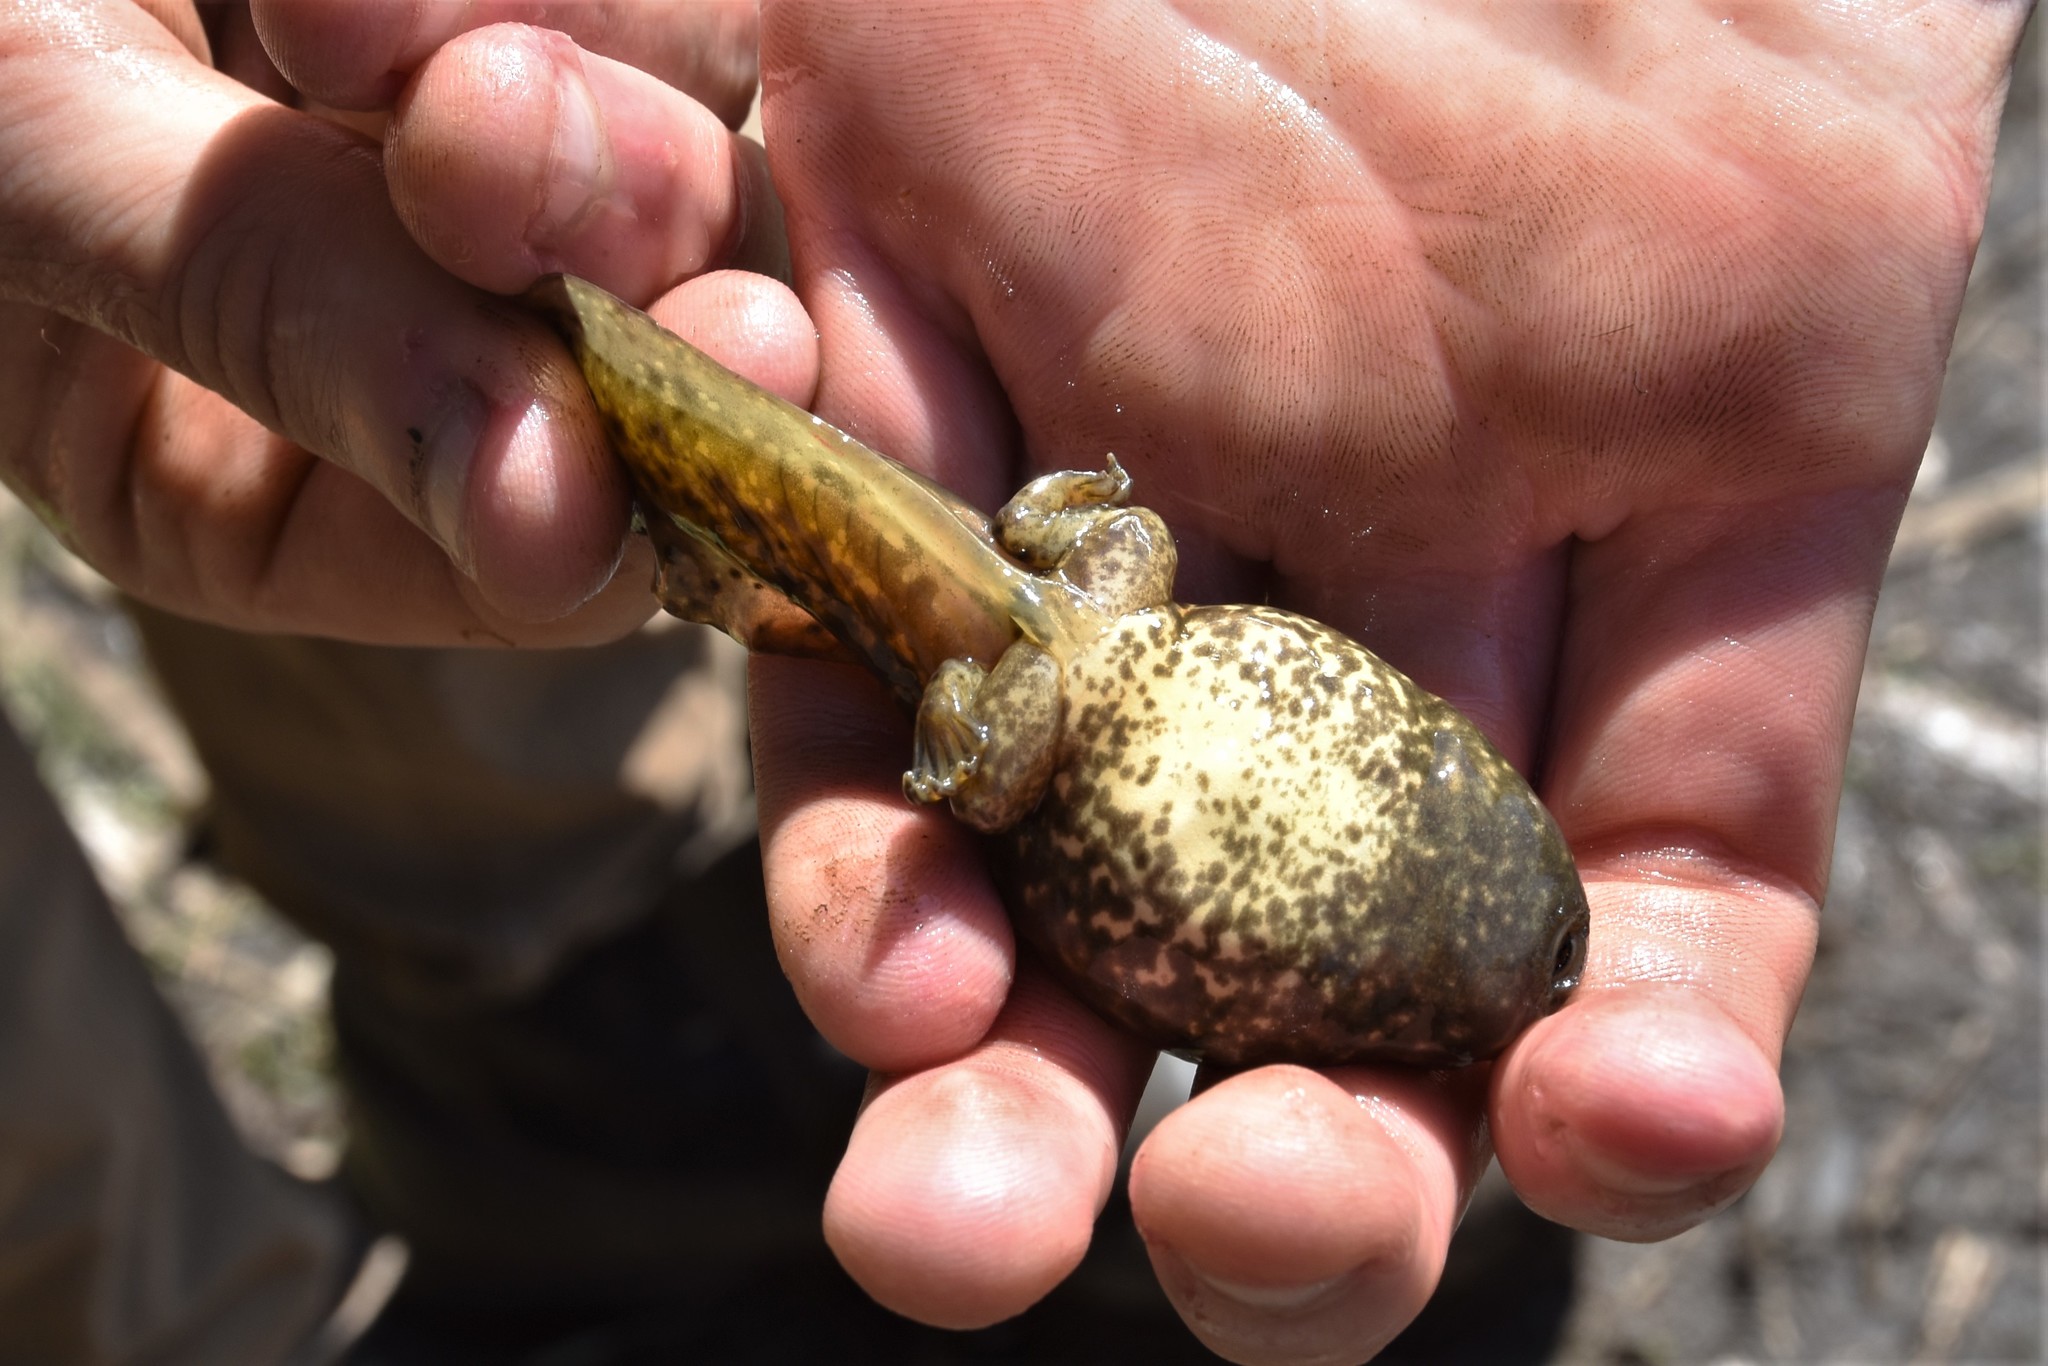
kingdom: Animalia
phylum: Chordata
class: Amphibia
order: Anura
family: Ranidae
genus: Lithobates
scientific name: Lithobates catesbeianus
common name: American bullfrog
